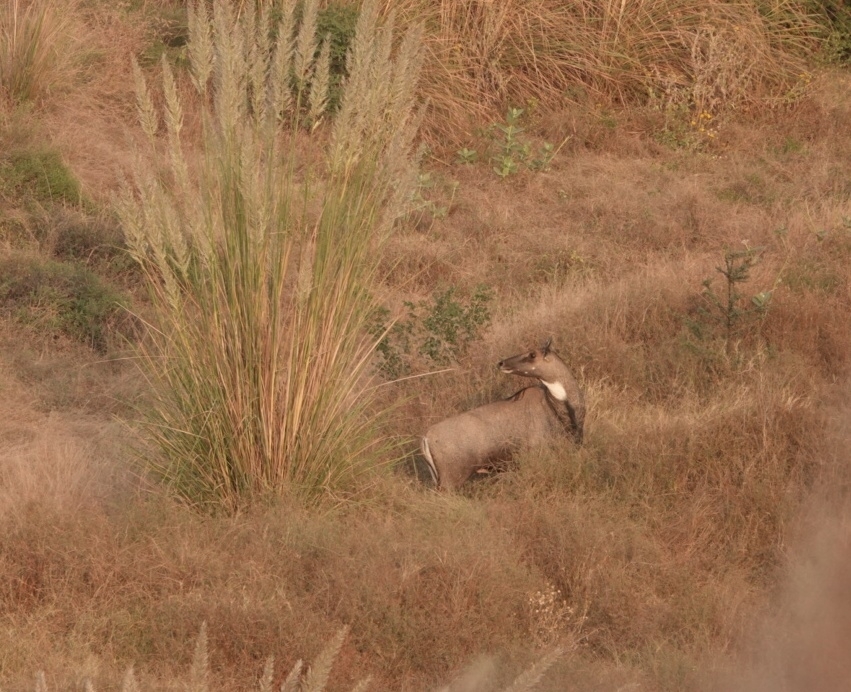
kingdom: Animalia
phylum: Chordata
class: Mammalia
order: Artiodactyla
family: Bovidae
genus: Boselaphus
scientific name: Boselaphus tragocamelus
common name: Nilgai
